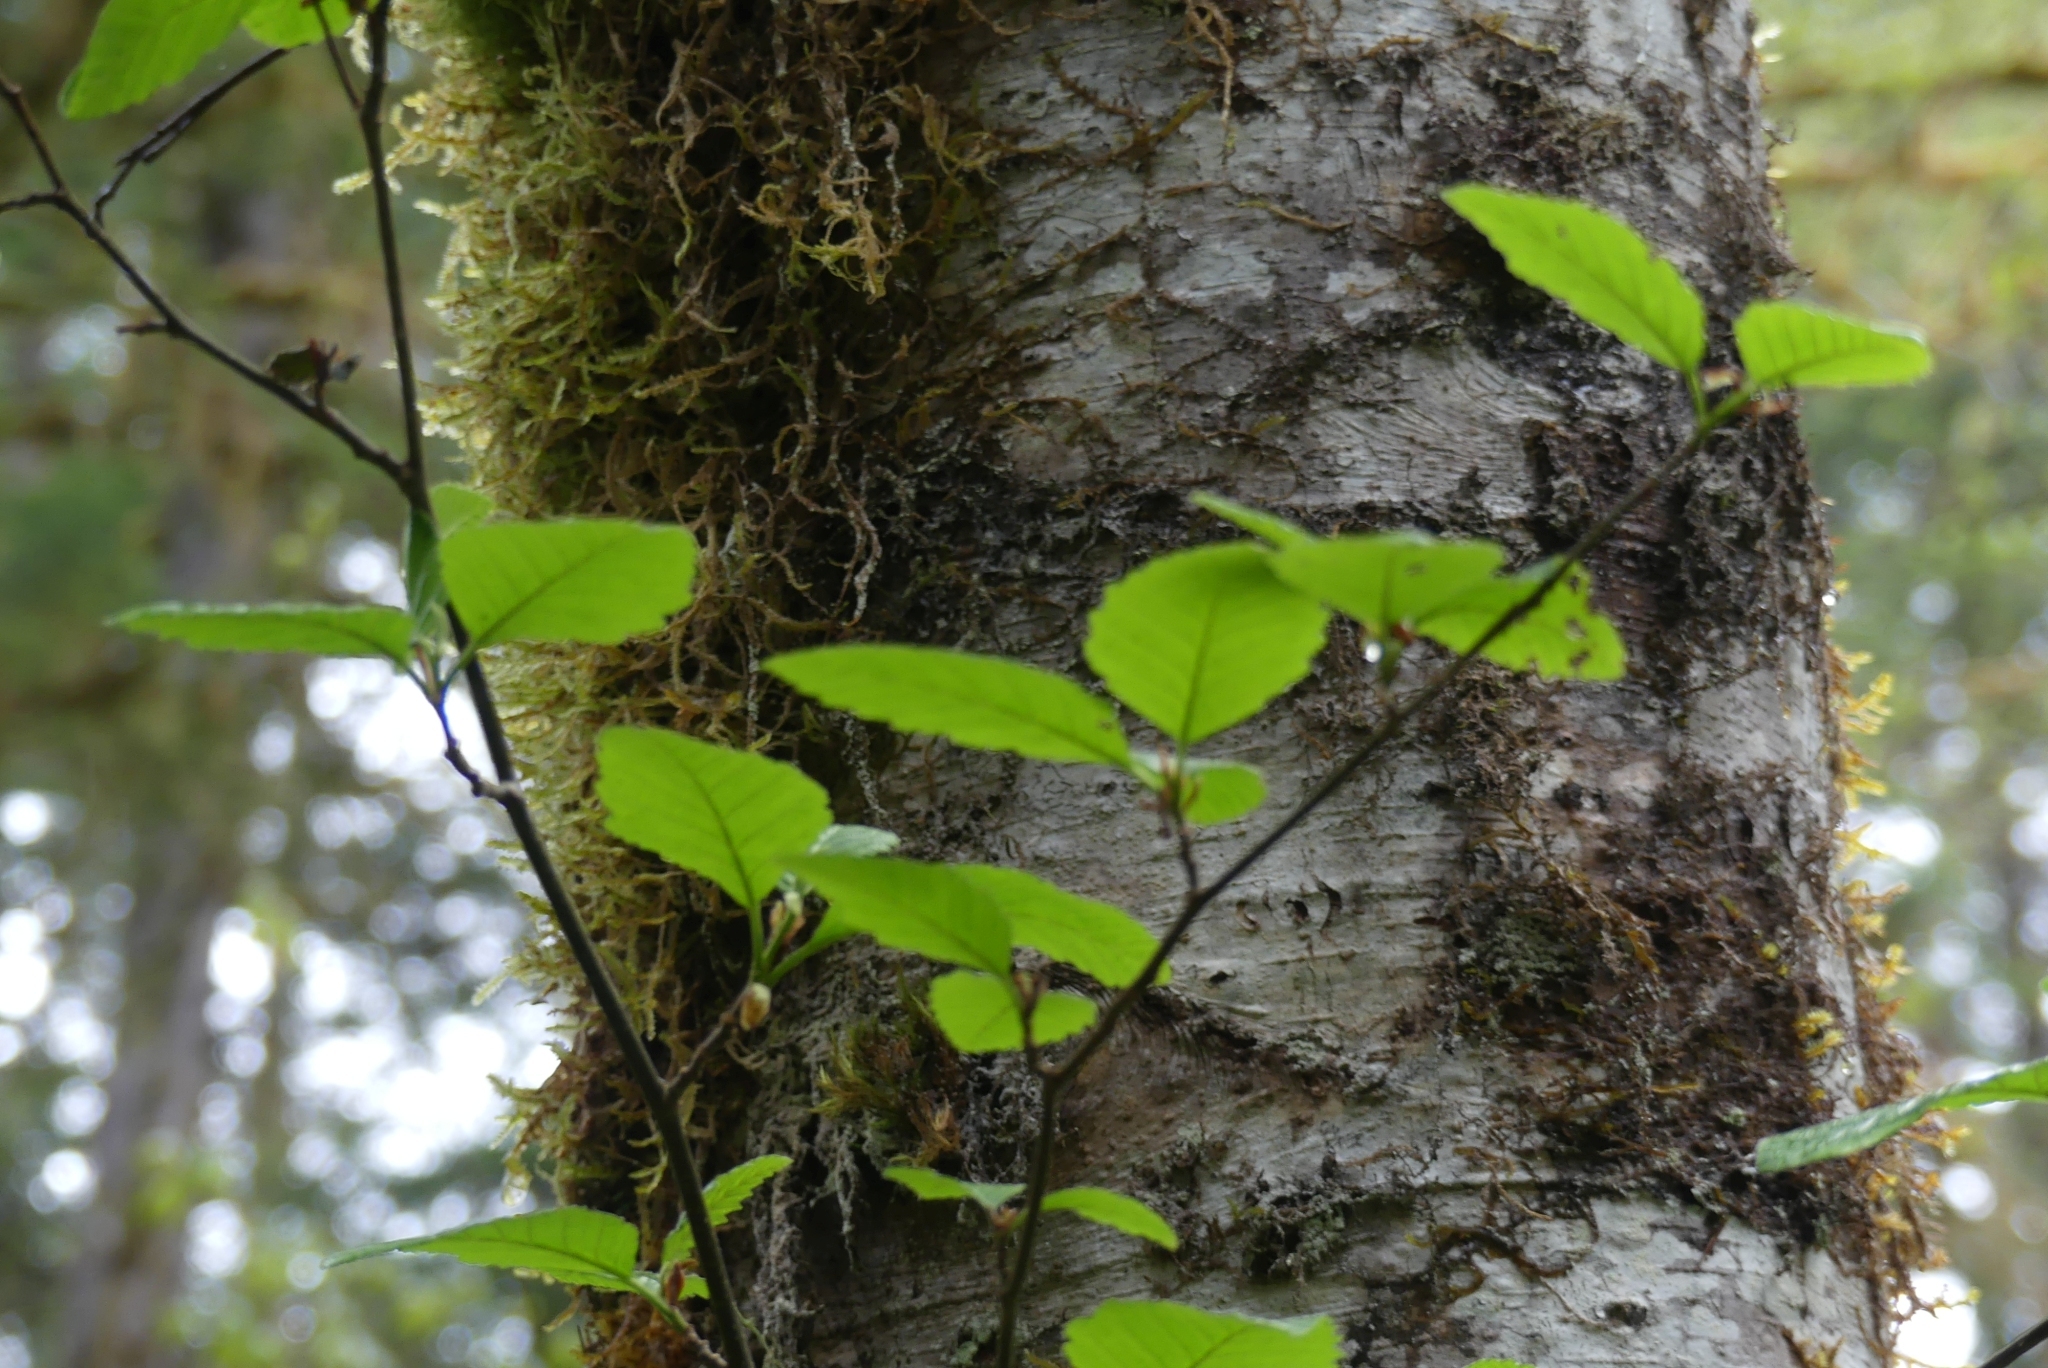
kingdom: Plantae
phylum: Tracheophyta
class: Magnoliopsida
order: Fagales
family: Betulaceae
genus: Alnus
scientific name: Alnus rubra
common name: Red alder
